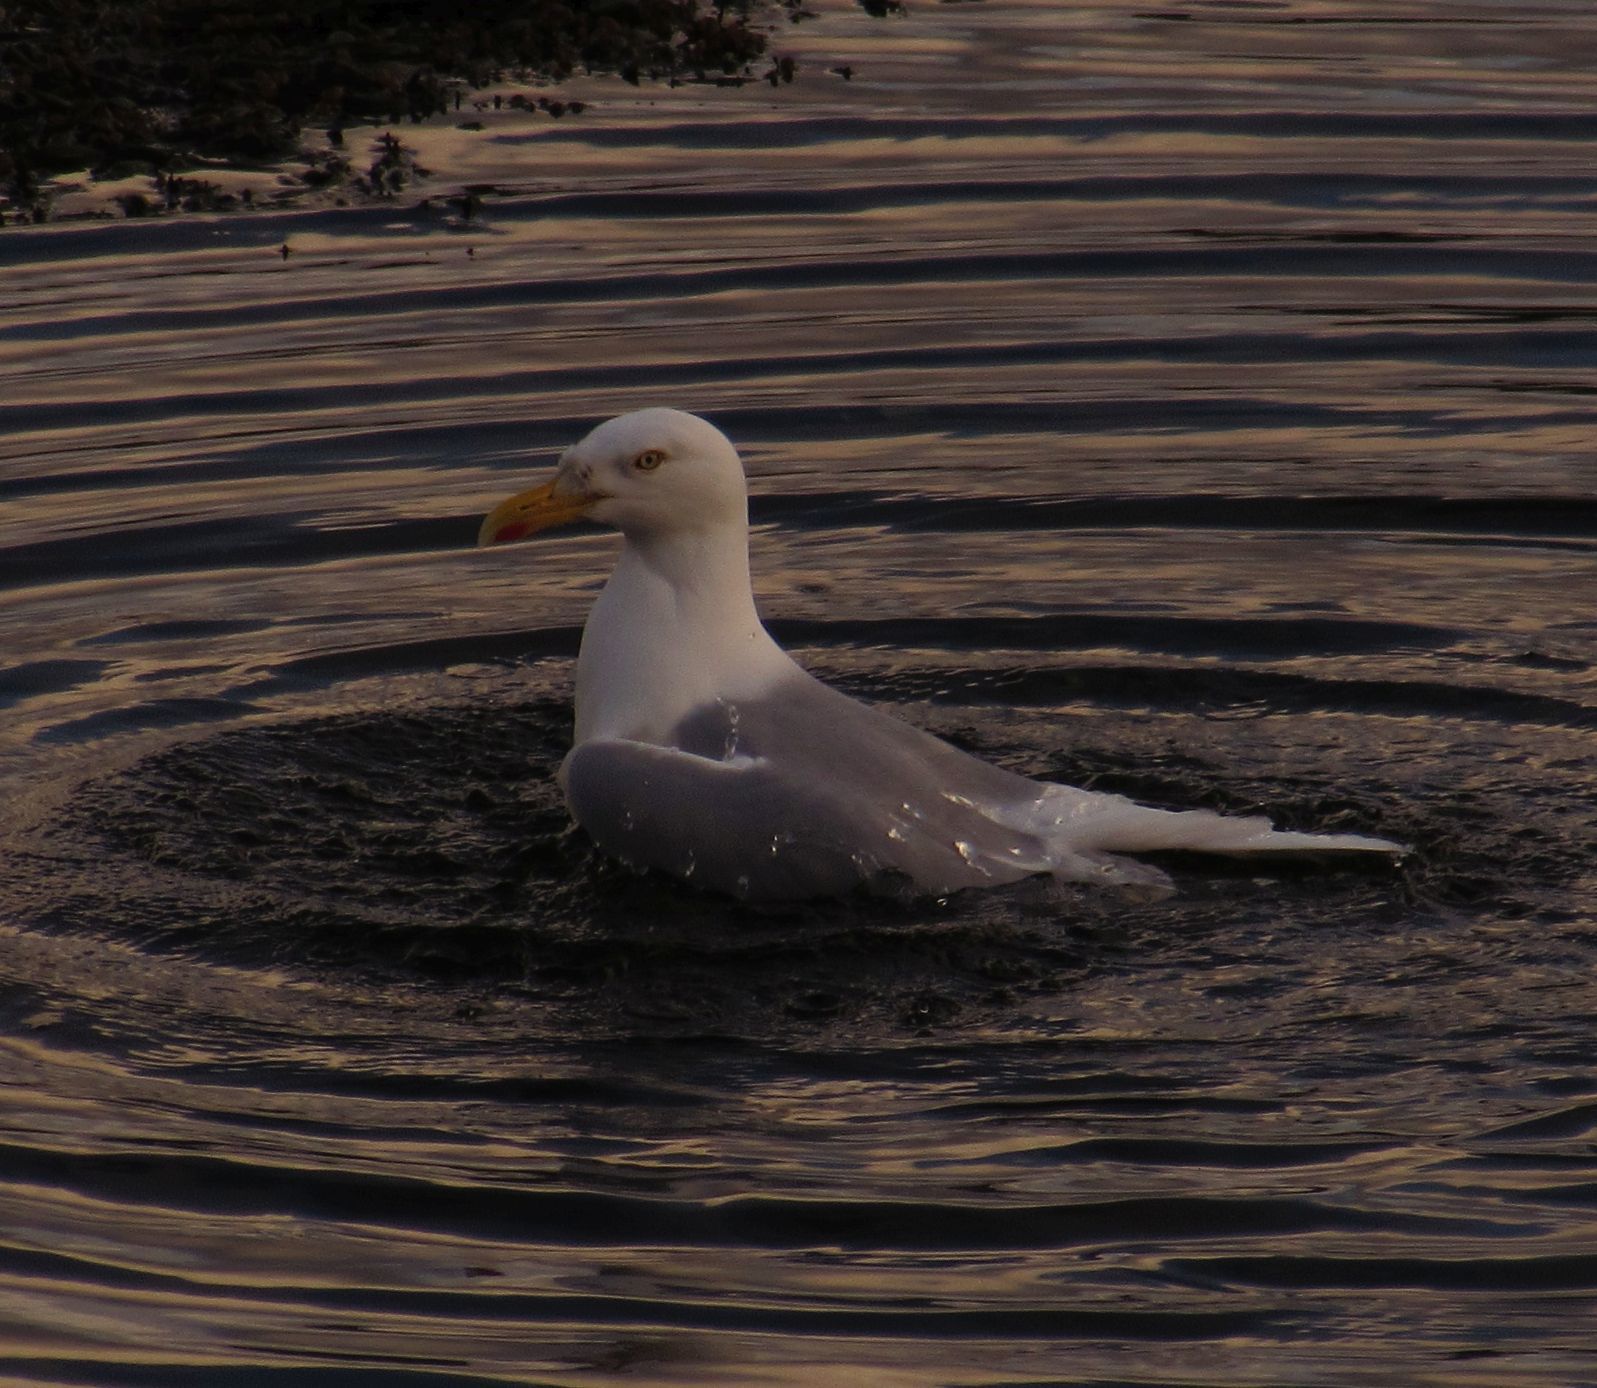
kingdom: Animalia
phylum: Chordata
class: Aves
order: Charadriiformes
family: Laridae
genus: Larus
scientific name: Larus argentatus
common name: Herring gull
